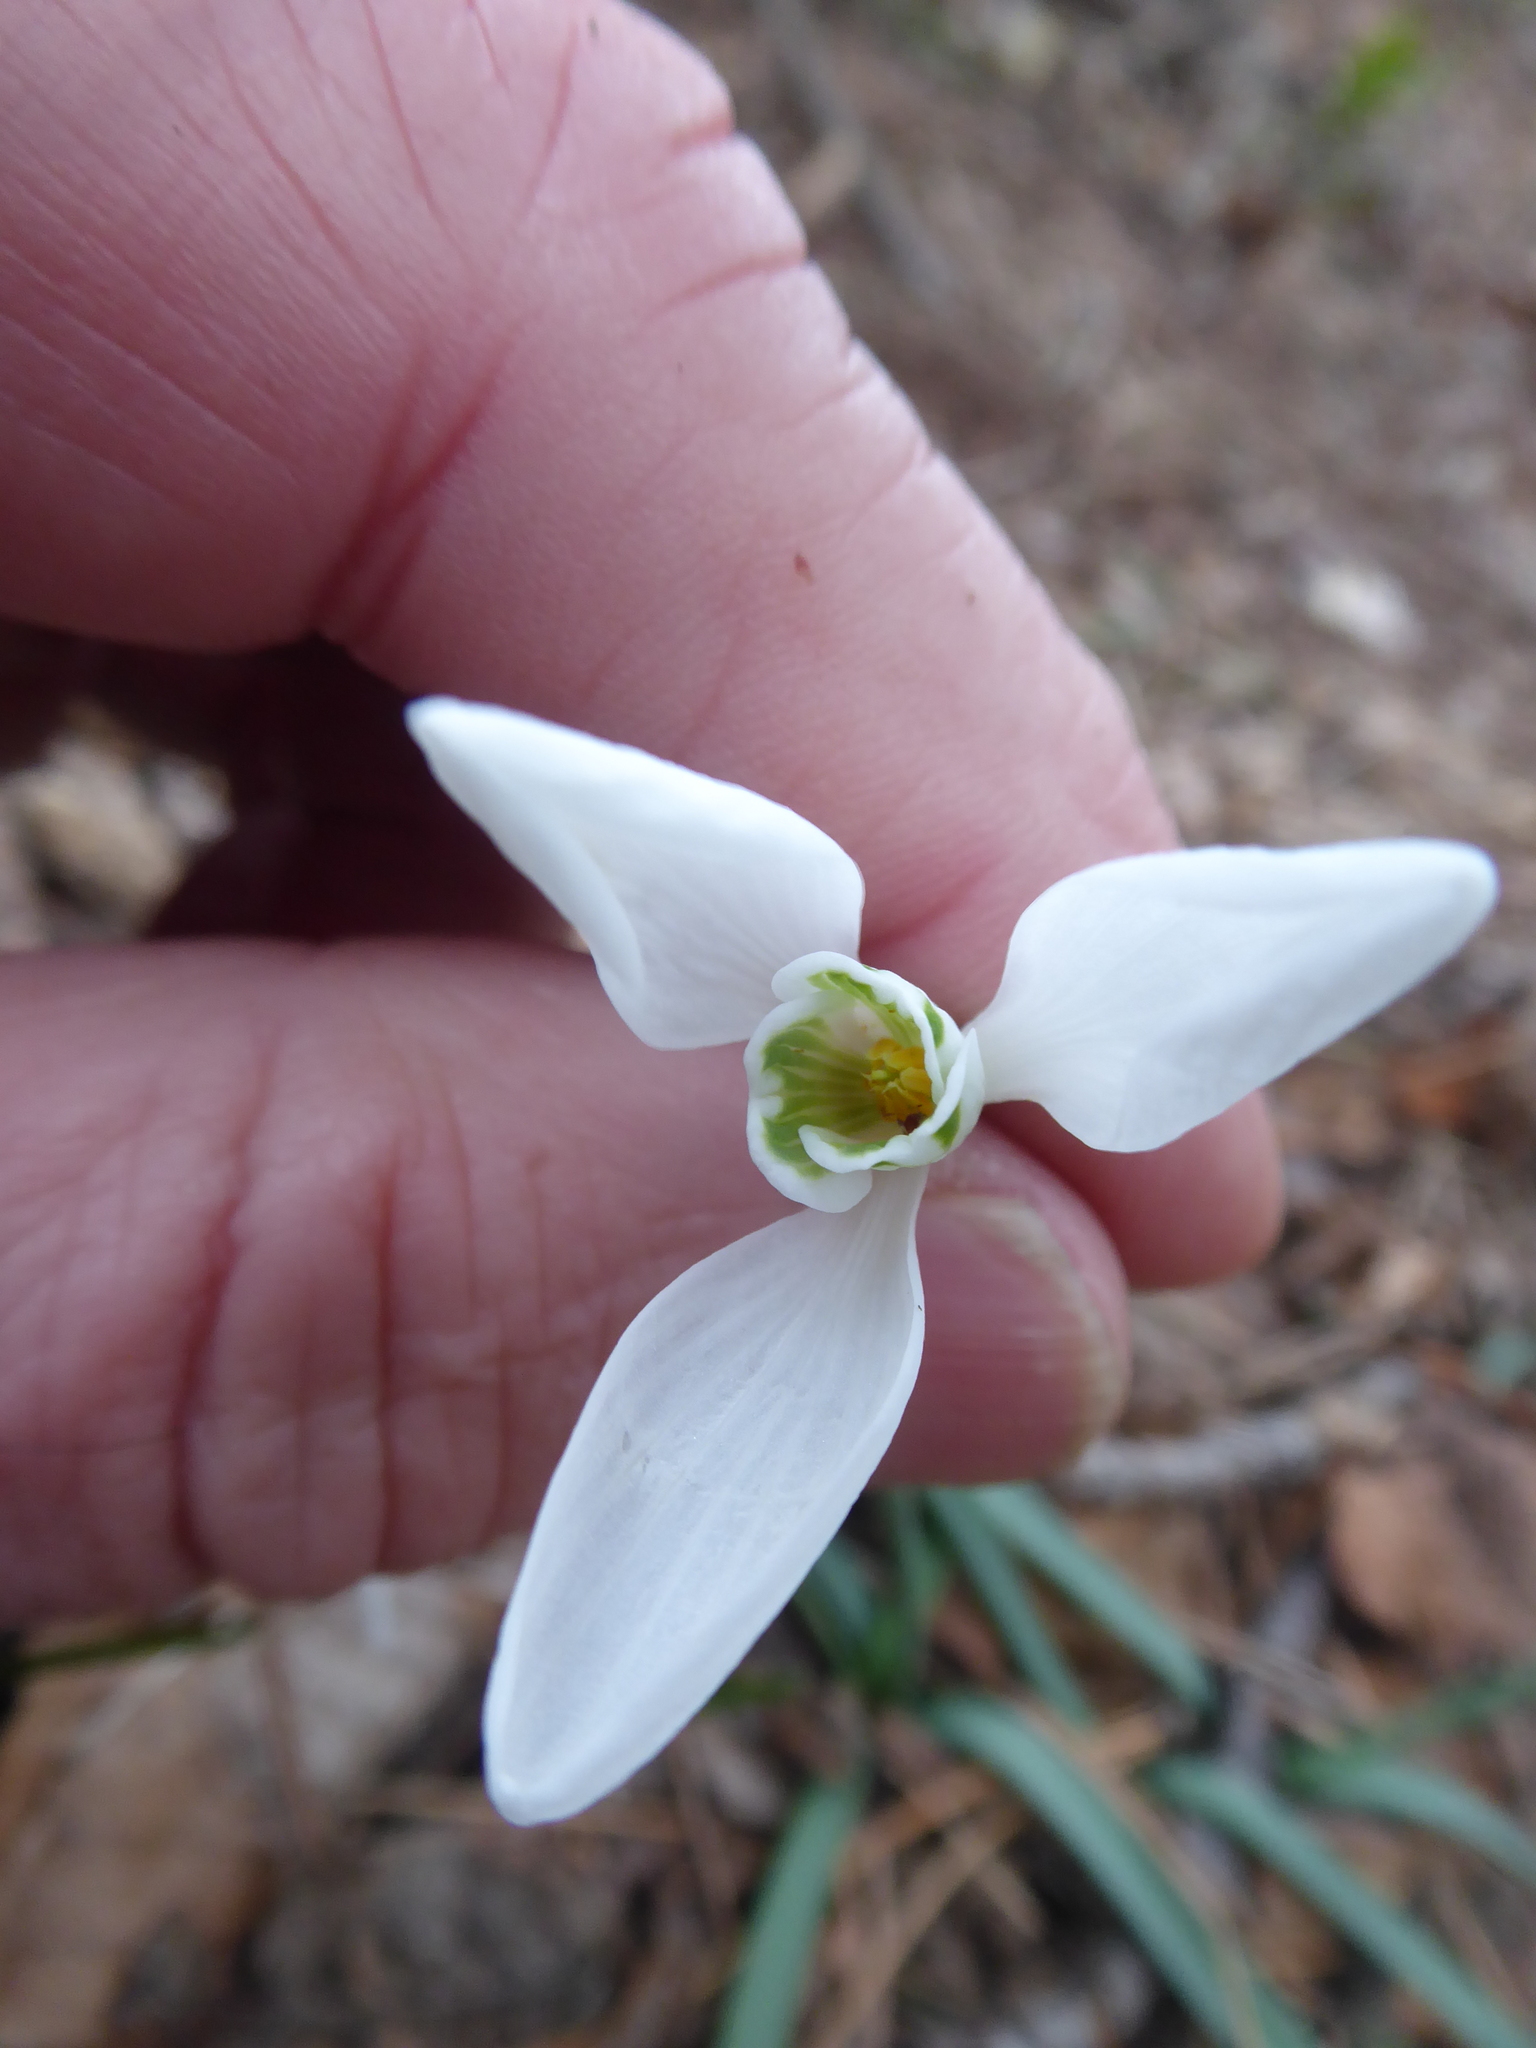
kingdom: Plantae
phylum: Tracheophyta
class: Liliopsida
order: Asparagales
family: Amaryllidaceae
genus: Galanthus
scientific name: Galanthus nivalis
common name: Snowdrop
